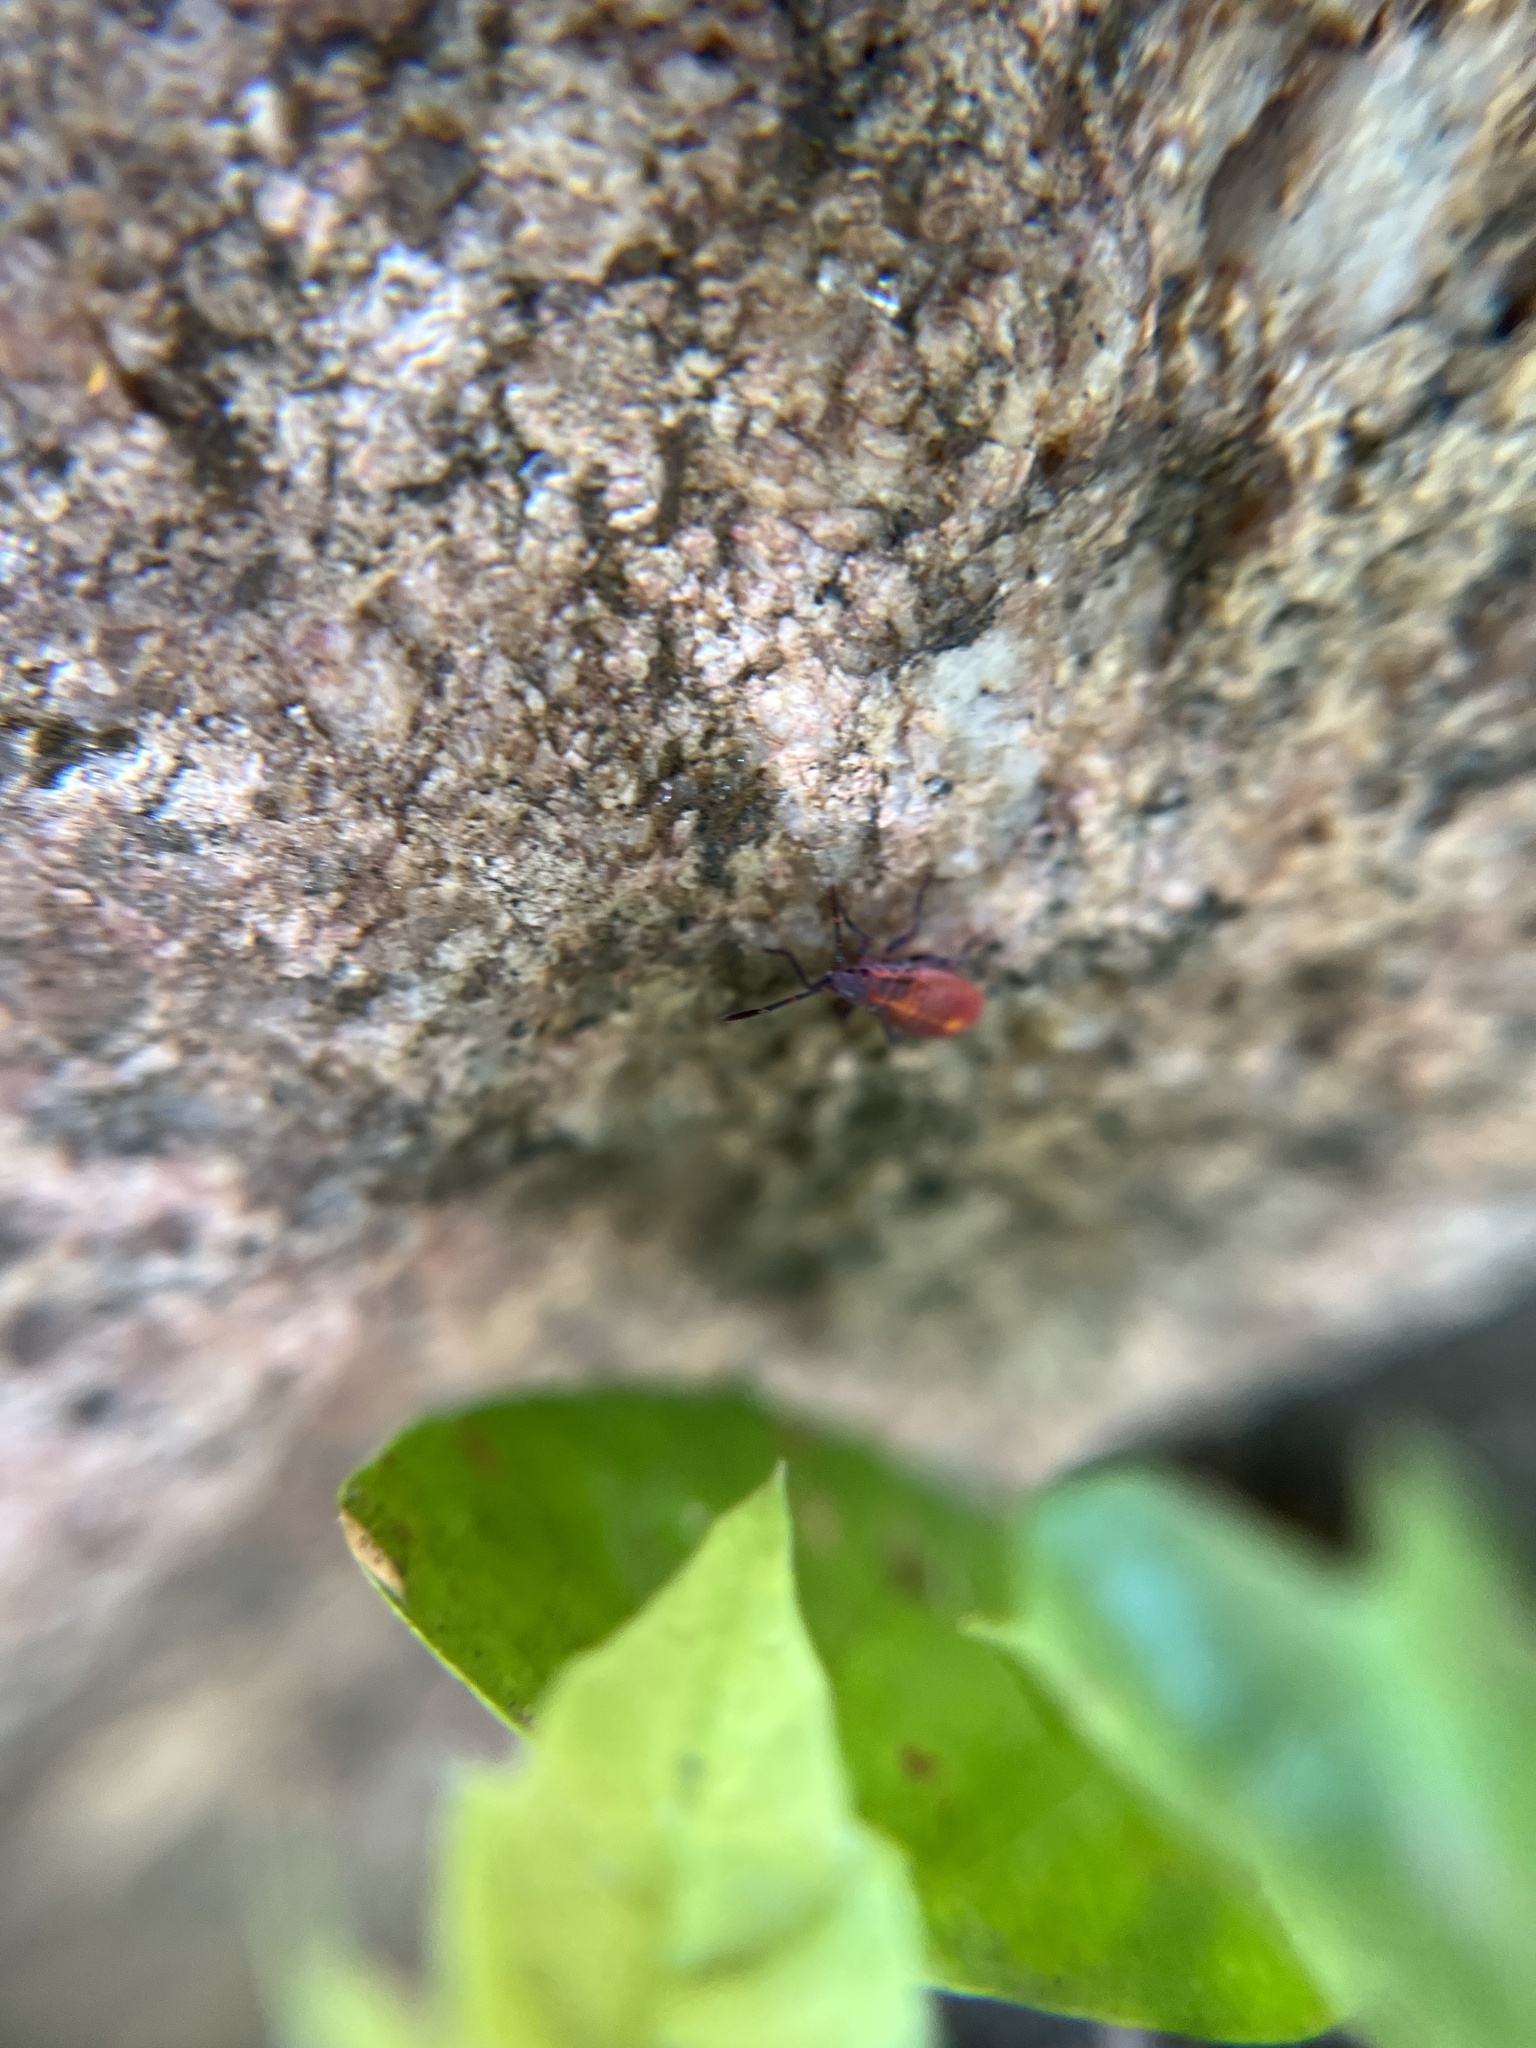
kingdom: Animalia
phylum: Arthropoda
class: Insecta
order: Hemiptera
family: Rhopalidae
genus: Boisea
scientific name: Boisea trivittata
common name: Boxelder bug
